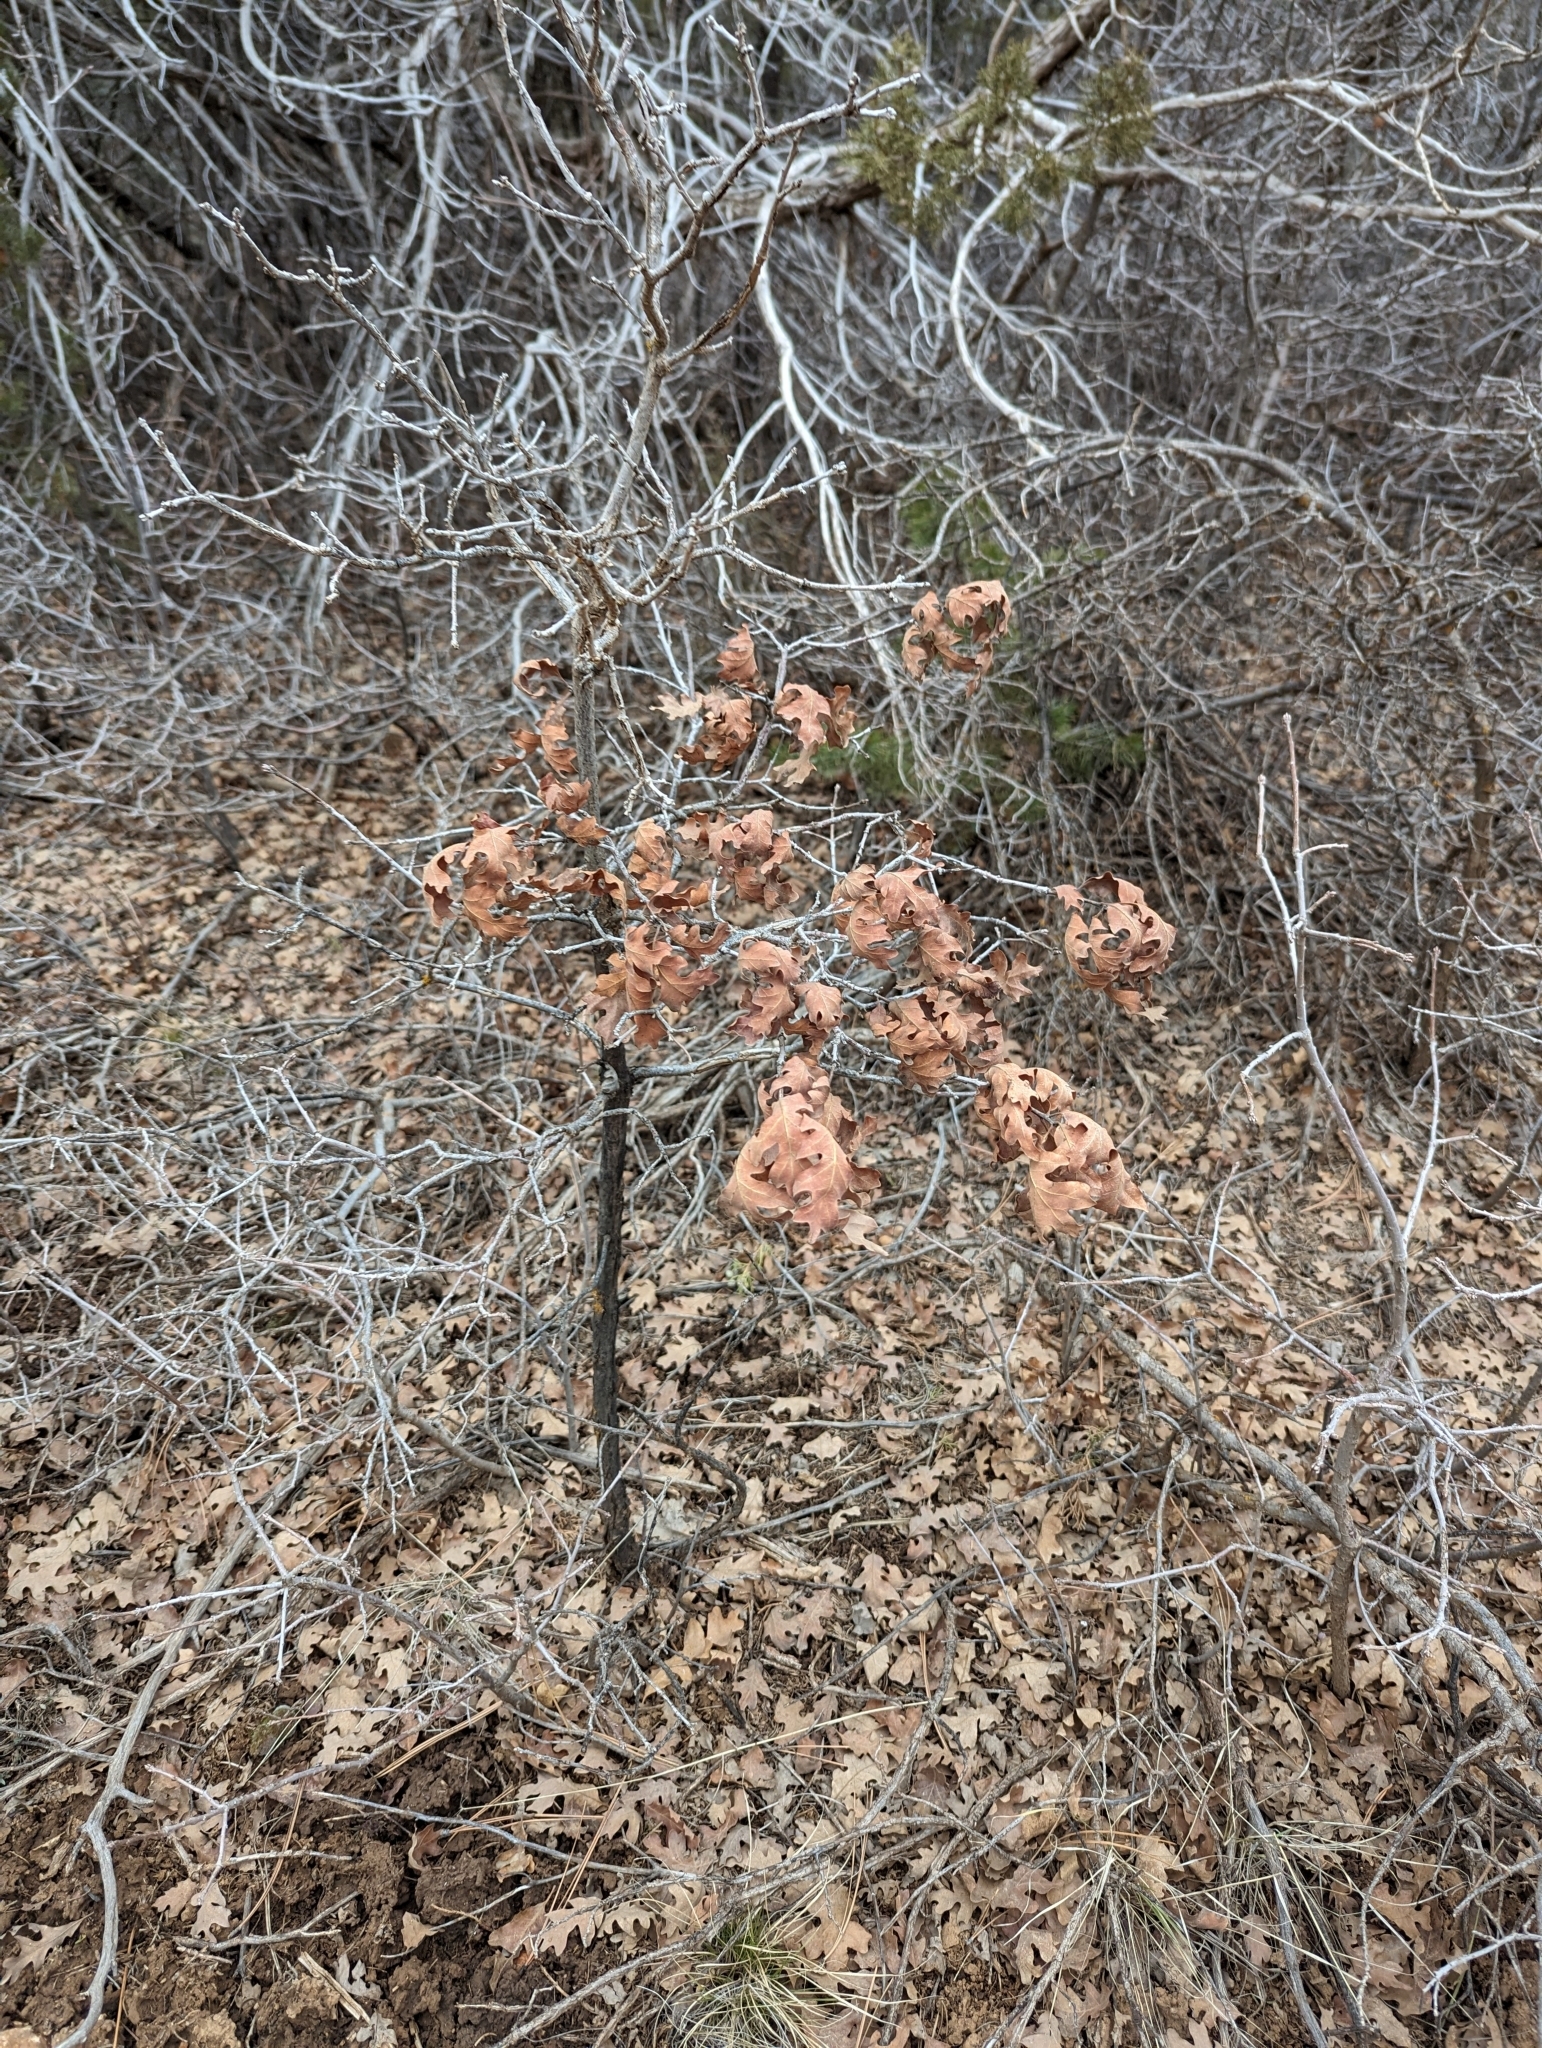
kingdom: Plantae
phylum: Tracheophyta
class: Magnoliopsida
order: Fagales
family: Fagaceae
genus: Quercus
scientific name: Quercus gambelii
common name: Gambel oak
